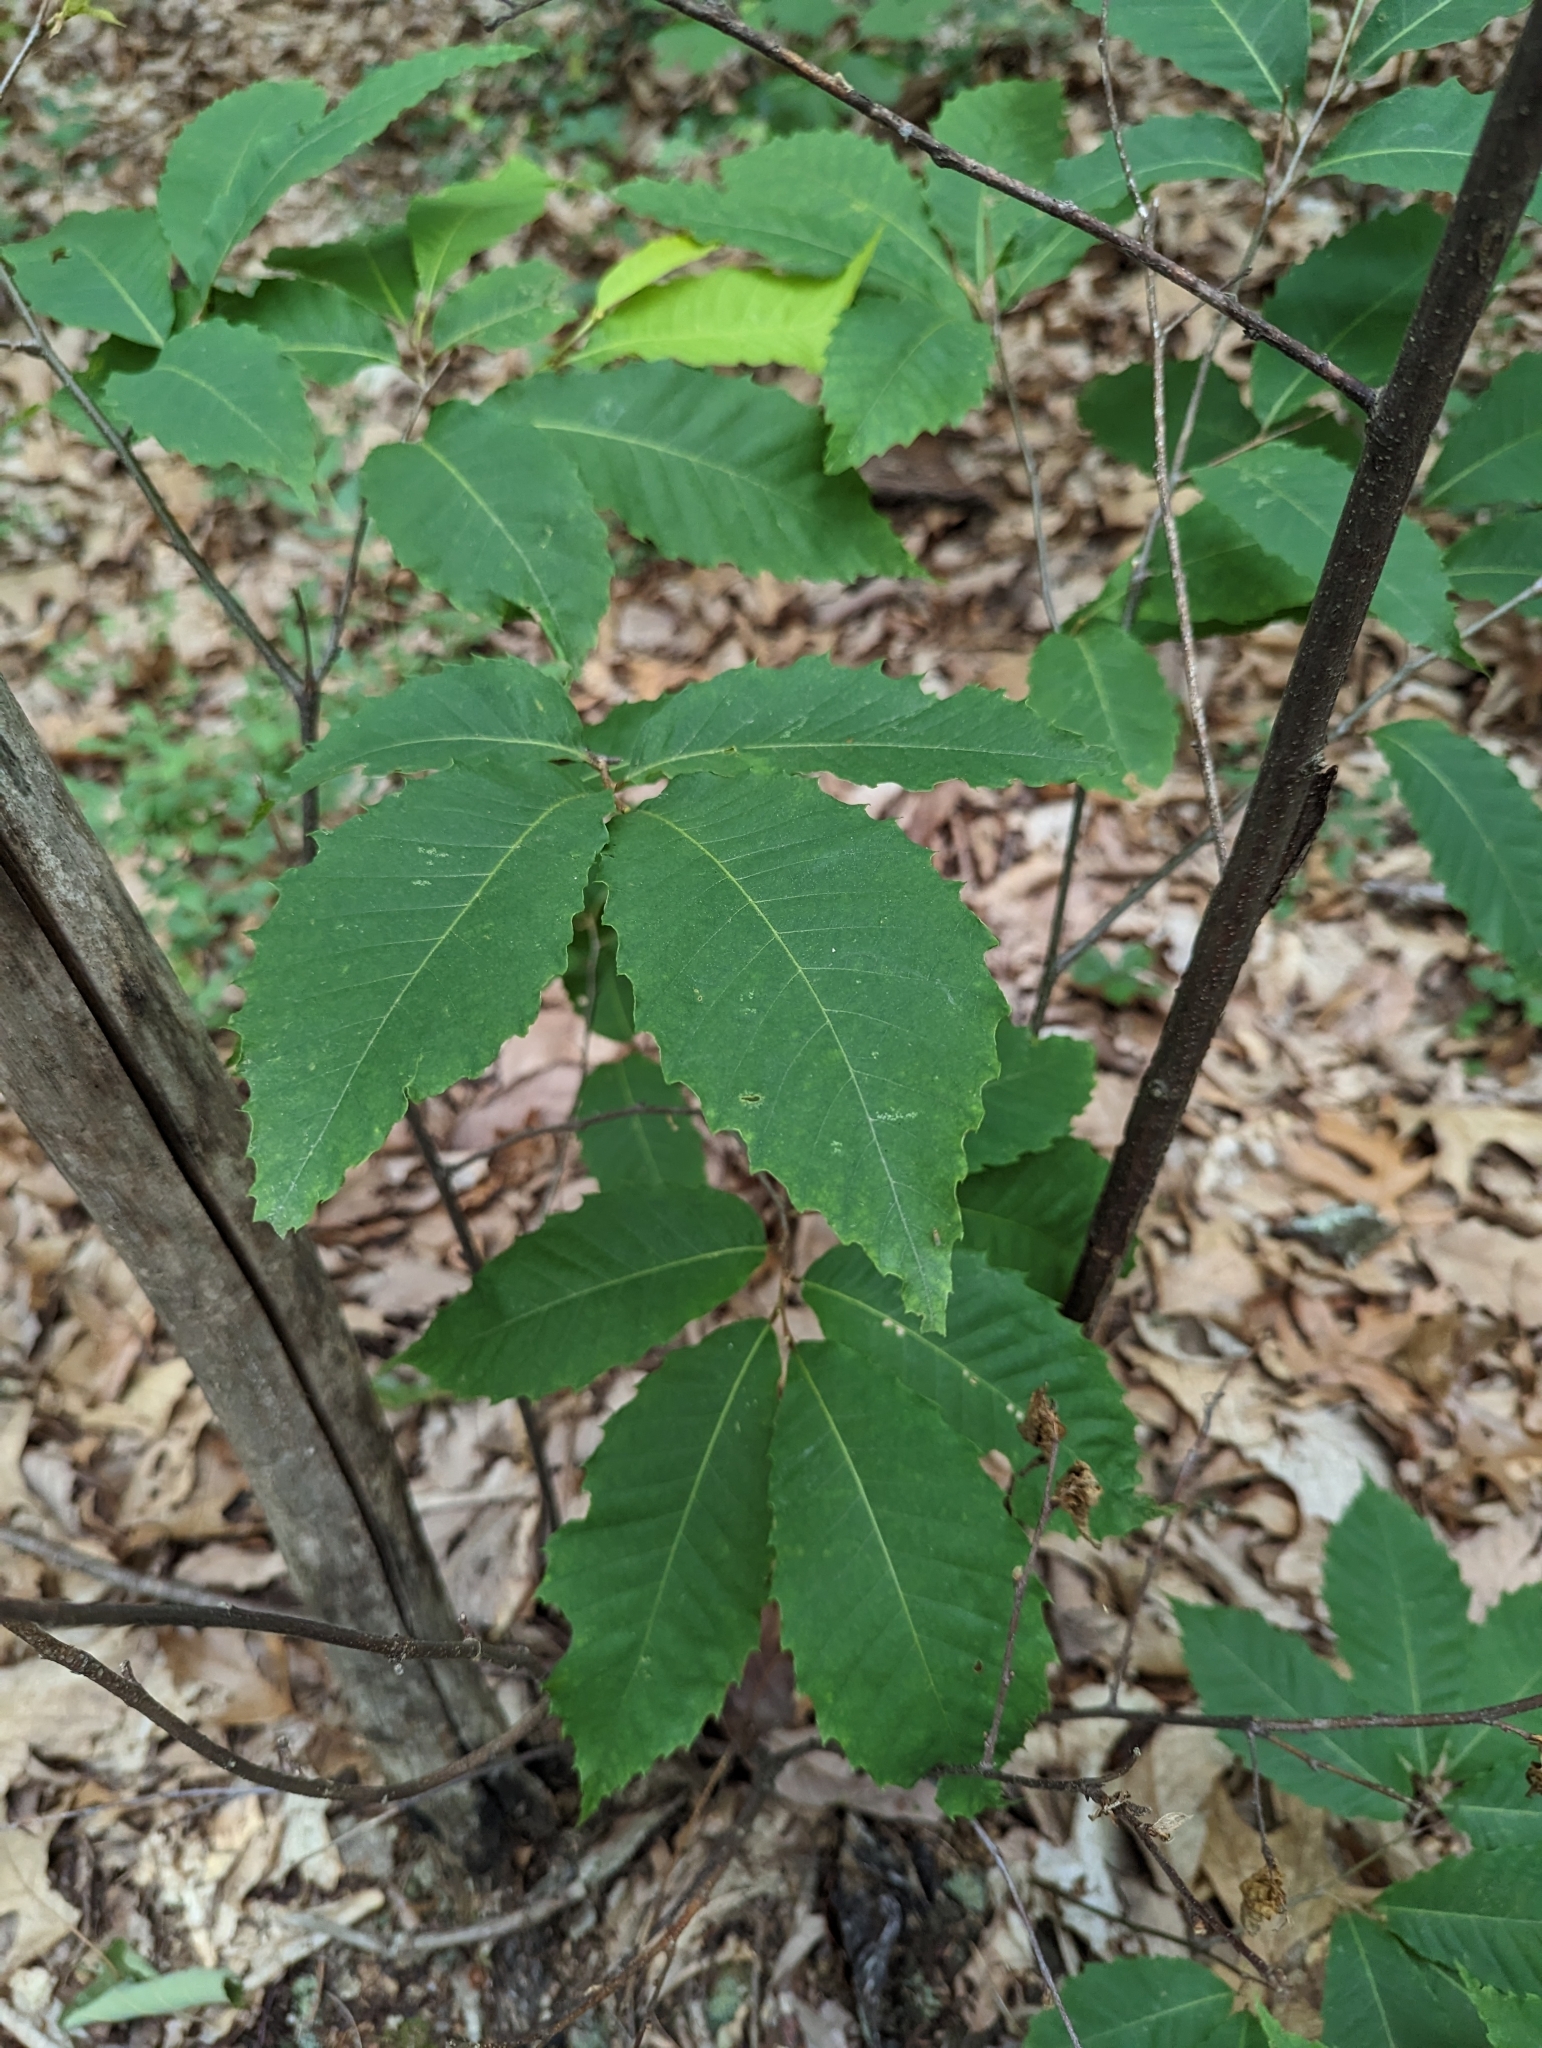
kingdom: Plantae
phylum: Tracheophyta
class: Magnoliopsida
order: Fagales
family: Fagaceae
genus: Castanea
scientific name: Castanea dentata
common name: American chestnut
